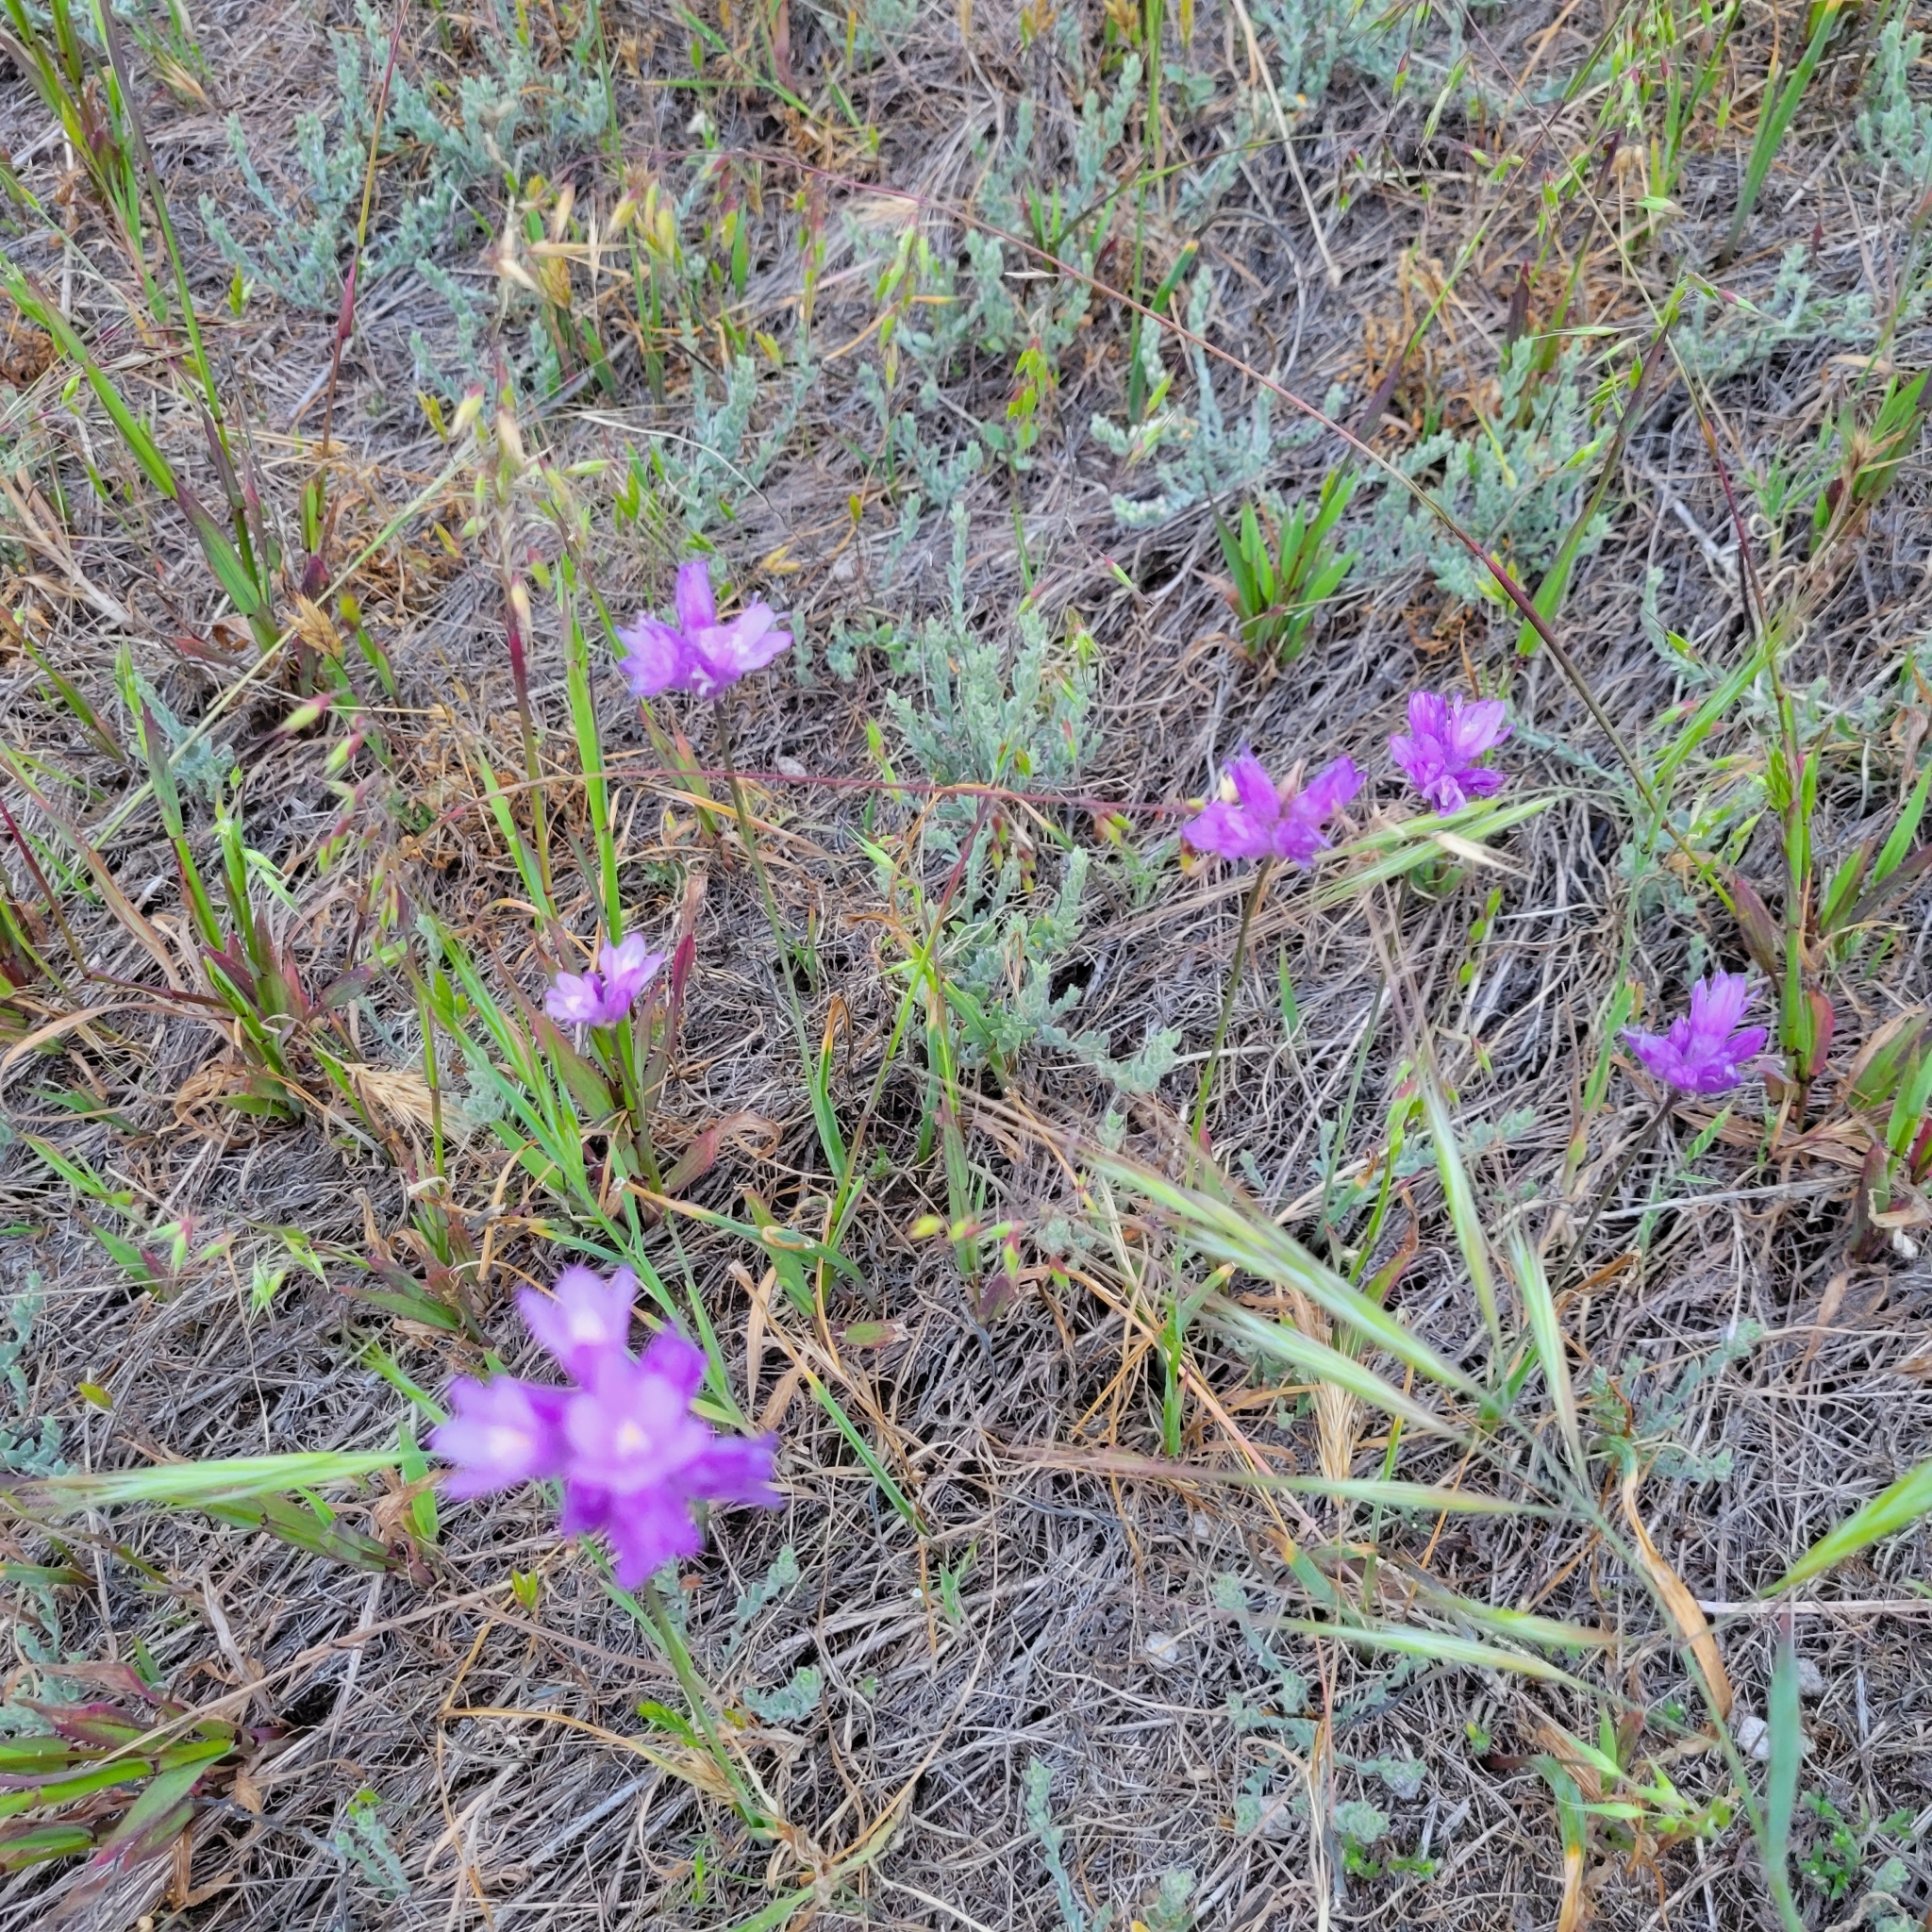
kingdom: Plantae
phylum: Tracheophyta
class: Liliopsida
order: Asparagales
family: Asparagaceae
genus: Dipterostemon
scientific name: Dipterostemon capitatus
